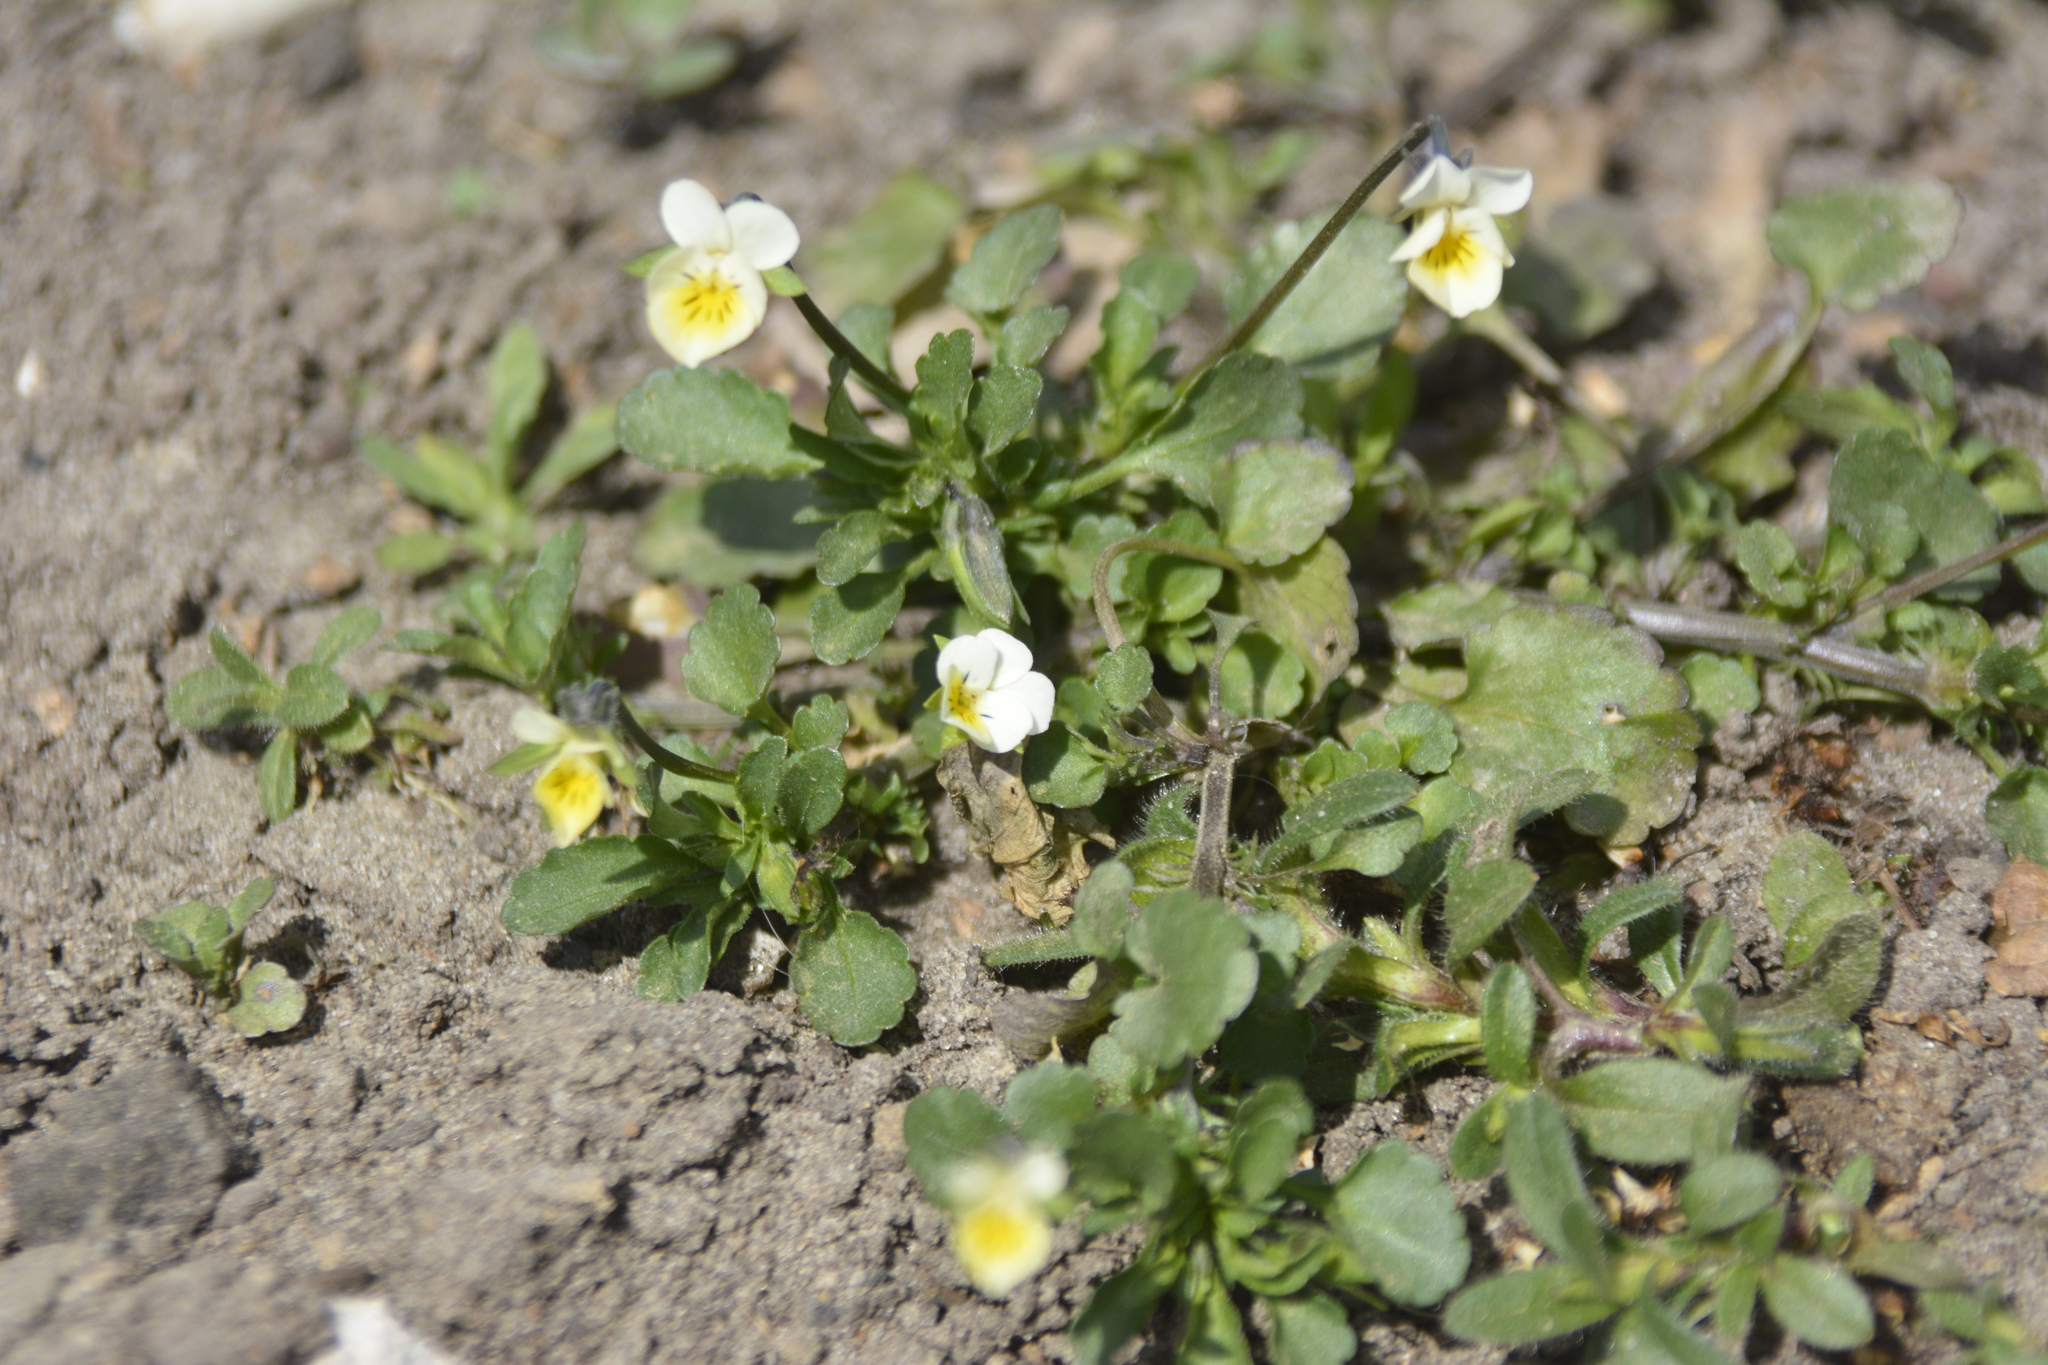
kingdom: Plantae
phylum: Tracheophyta
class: Magnoliopsida
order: Malpighiales
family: Violaceae
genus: Viola
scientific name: Viola arvensis
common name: Field pansy
